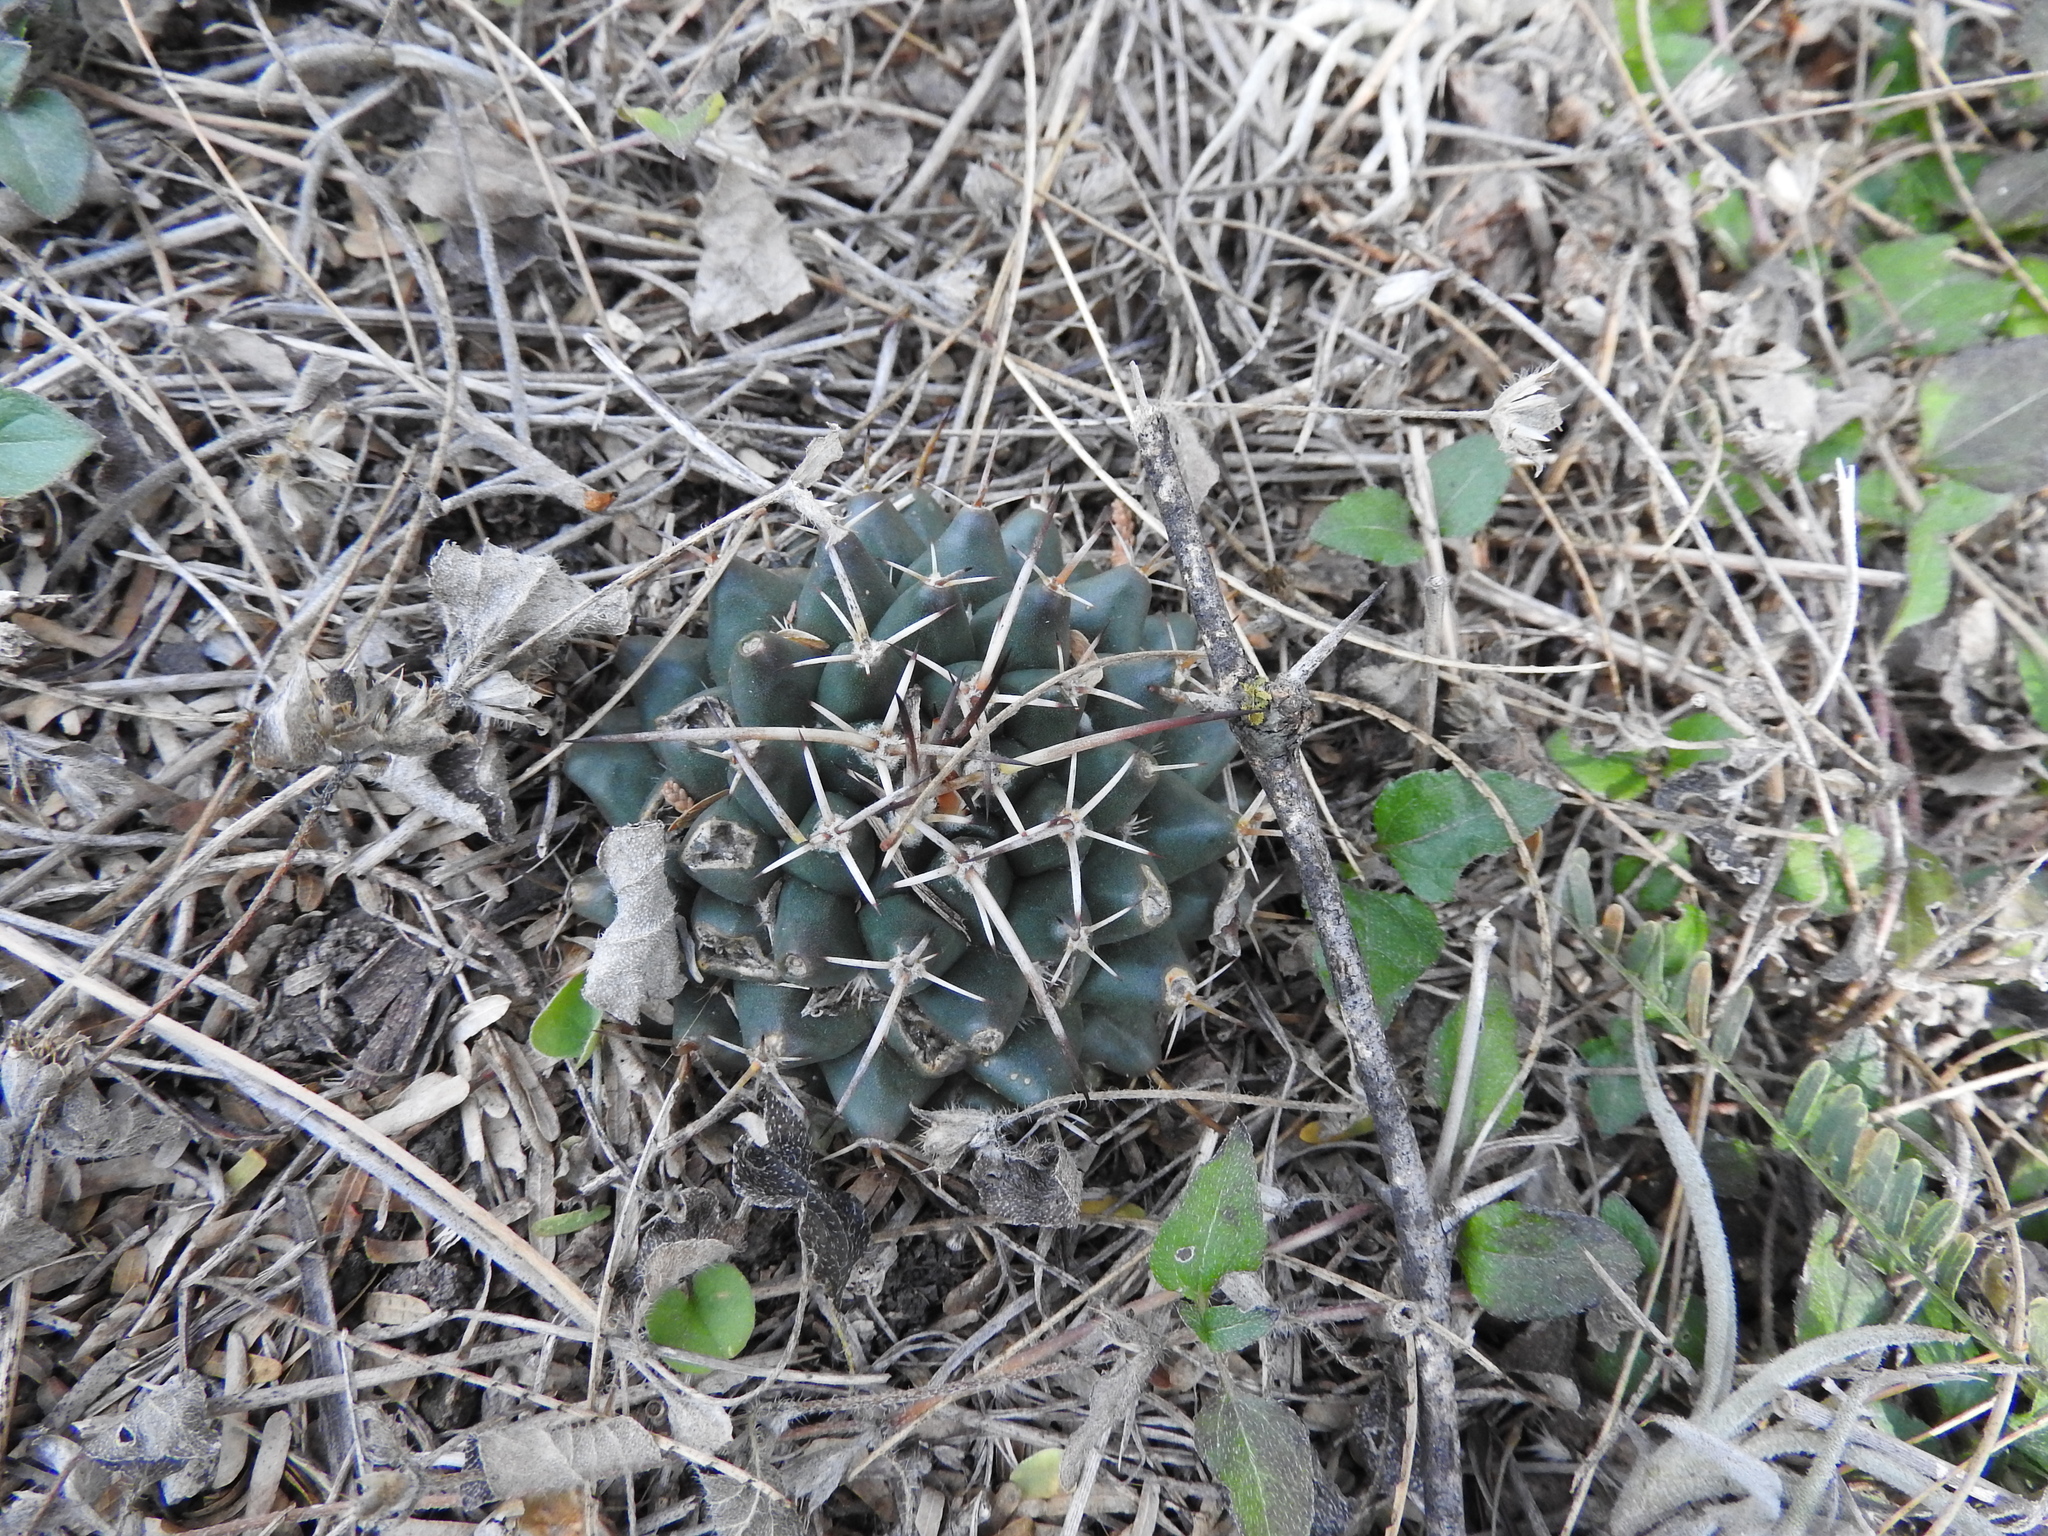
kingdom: Plantae
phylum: Tracheophyta
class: Magnoliopsida
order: Caryophyllales
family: Cactaceae
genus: Mammillaria
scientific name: Mammillaria magnimamma
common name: Mexican pincushion
